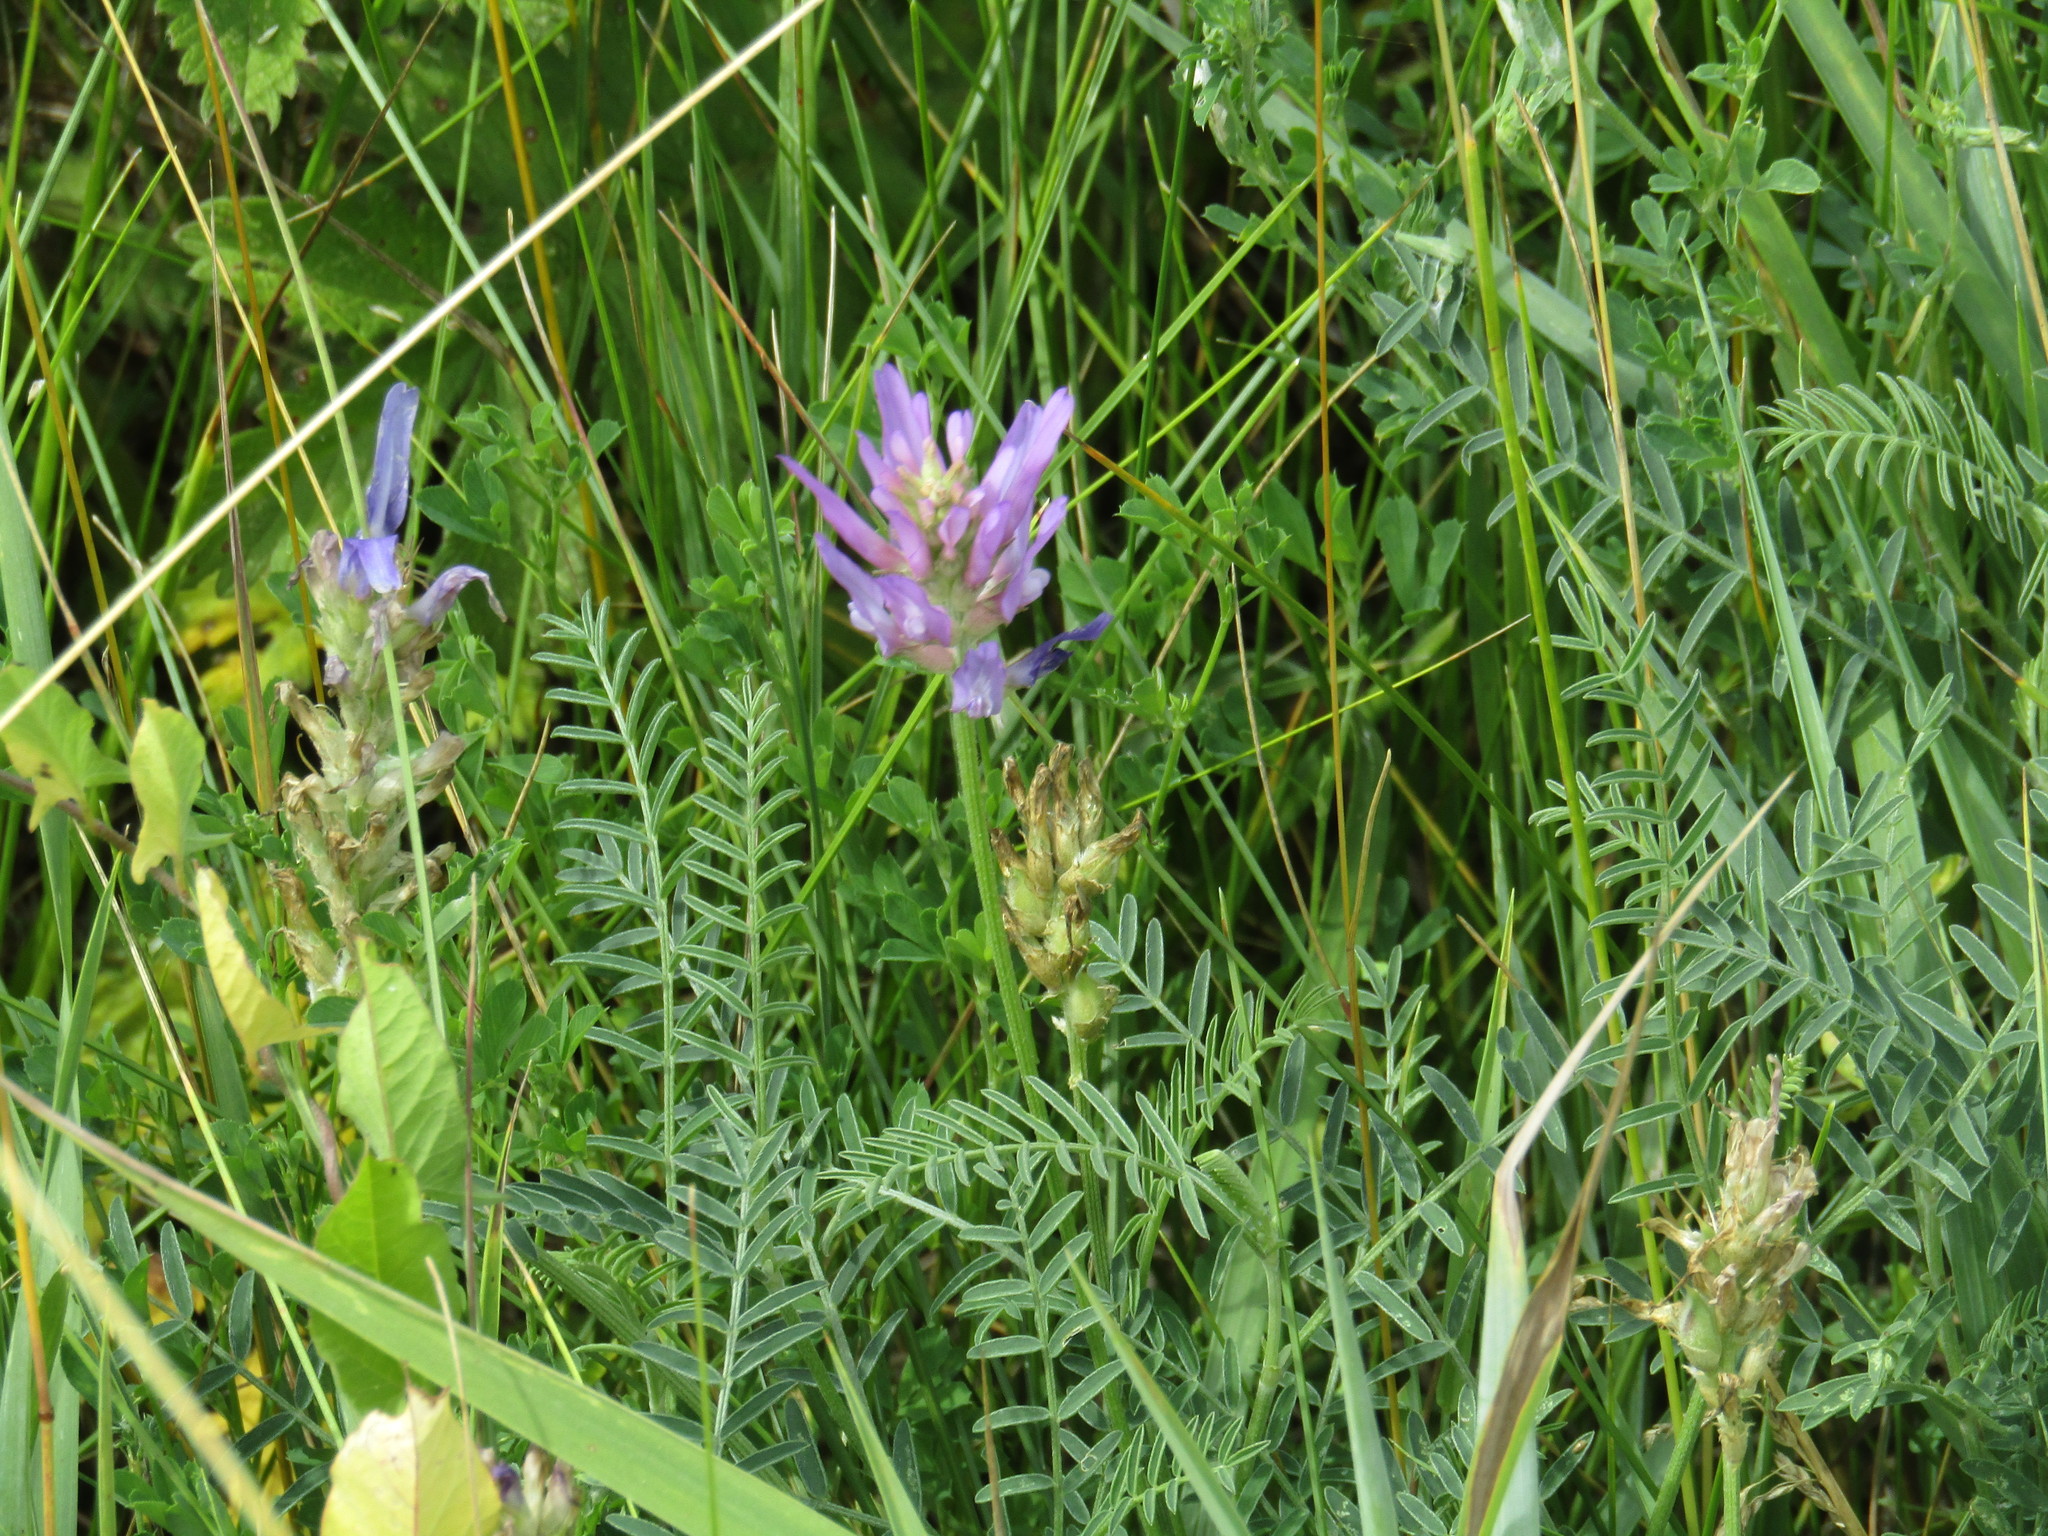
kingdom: Plantae
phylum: Tracheophyta
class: Magnoliopsida
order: Fabales
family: Fabaceae
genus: Astragalus
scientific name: Astragalus onobrychis
